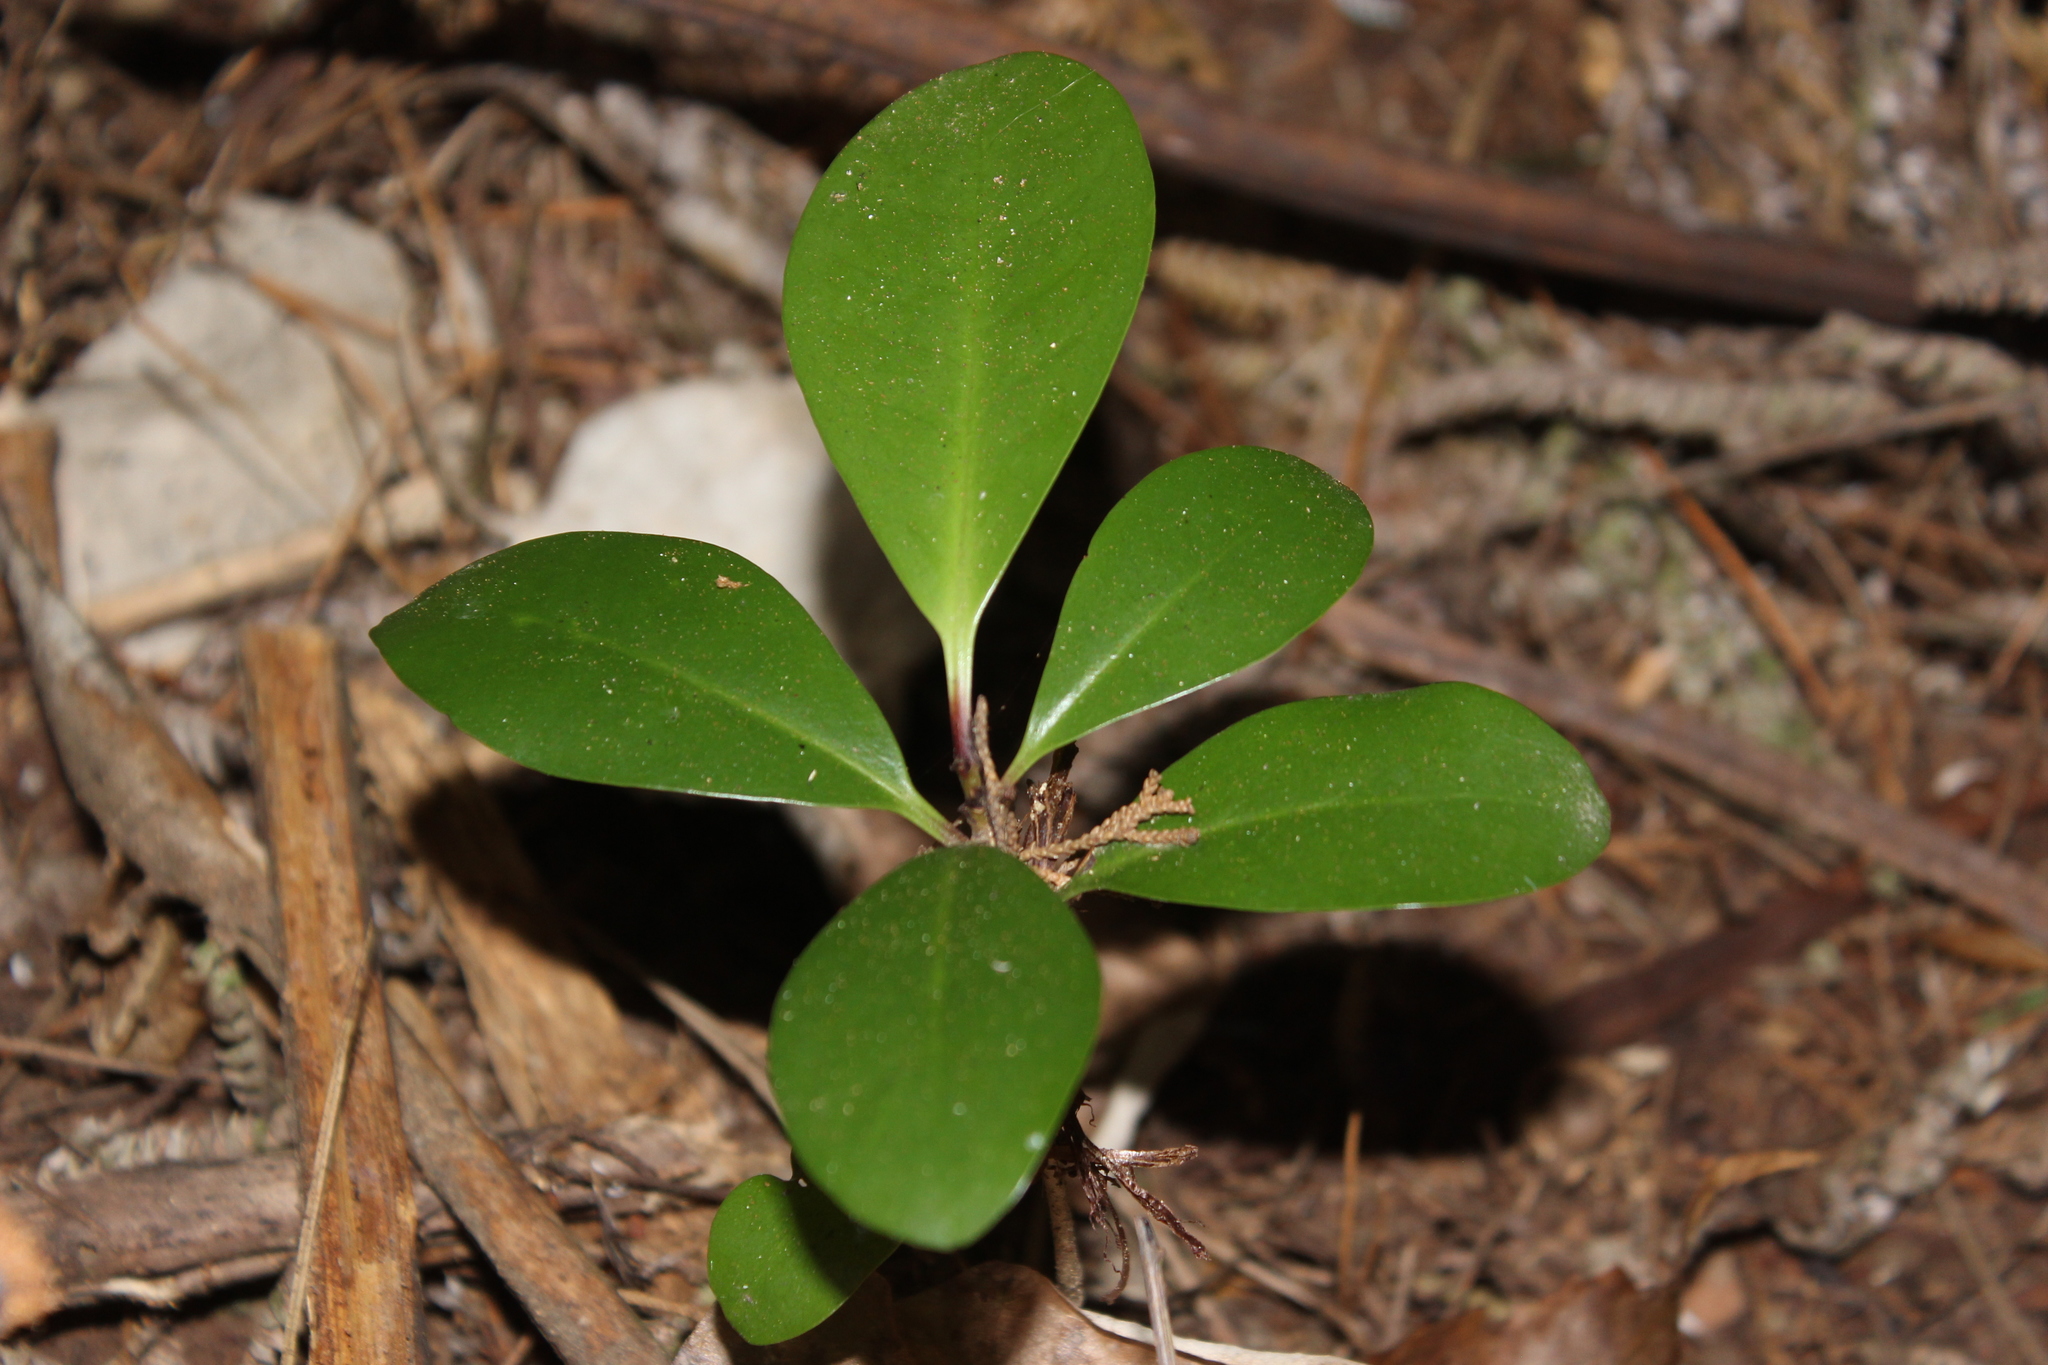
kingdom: Plantae
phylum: Tracheophyta
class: Magnoliopsida
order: Cucurbitales
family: Corynocarpaceae
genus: Corynocarpus
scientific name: Corynocarpus laevigatus
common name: New zealand laurel
